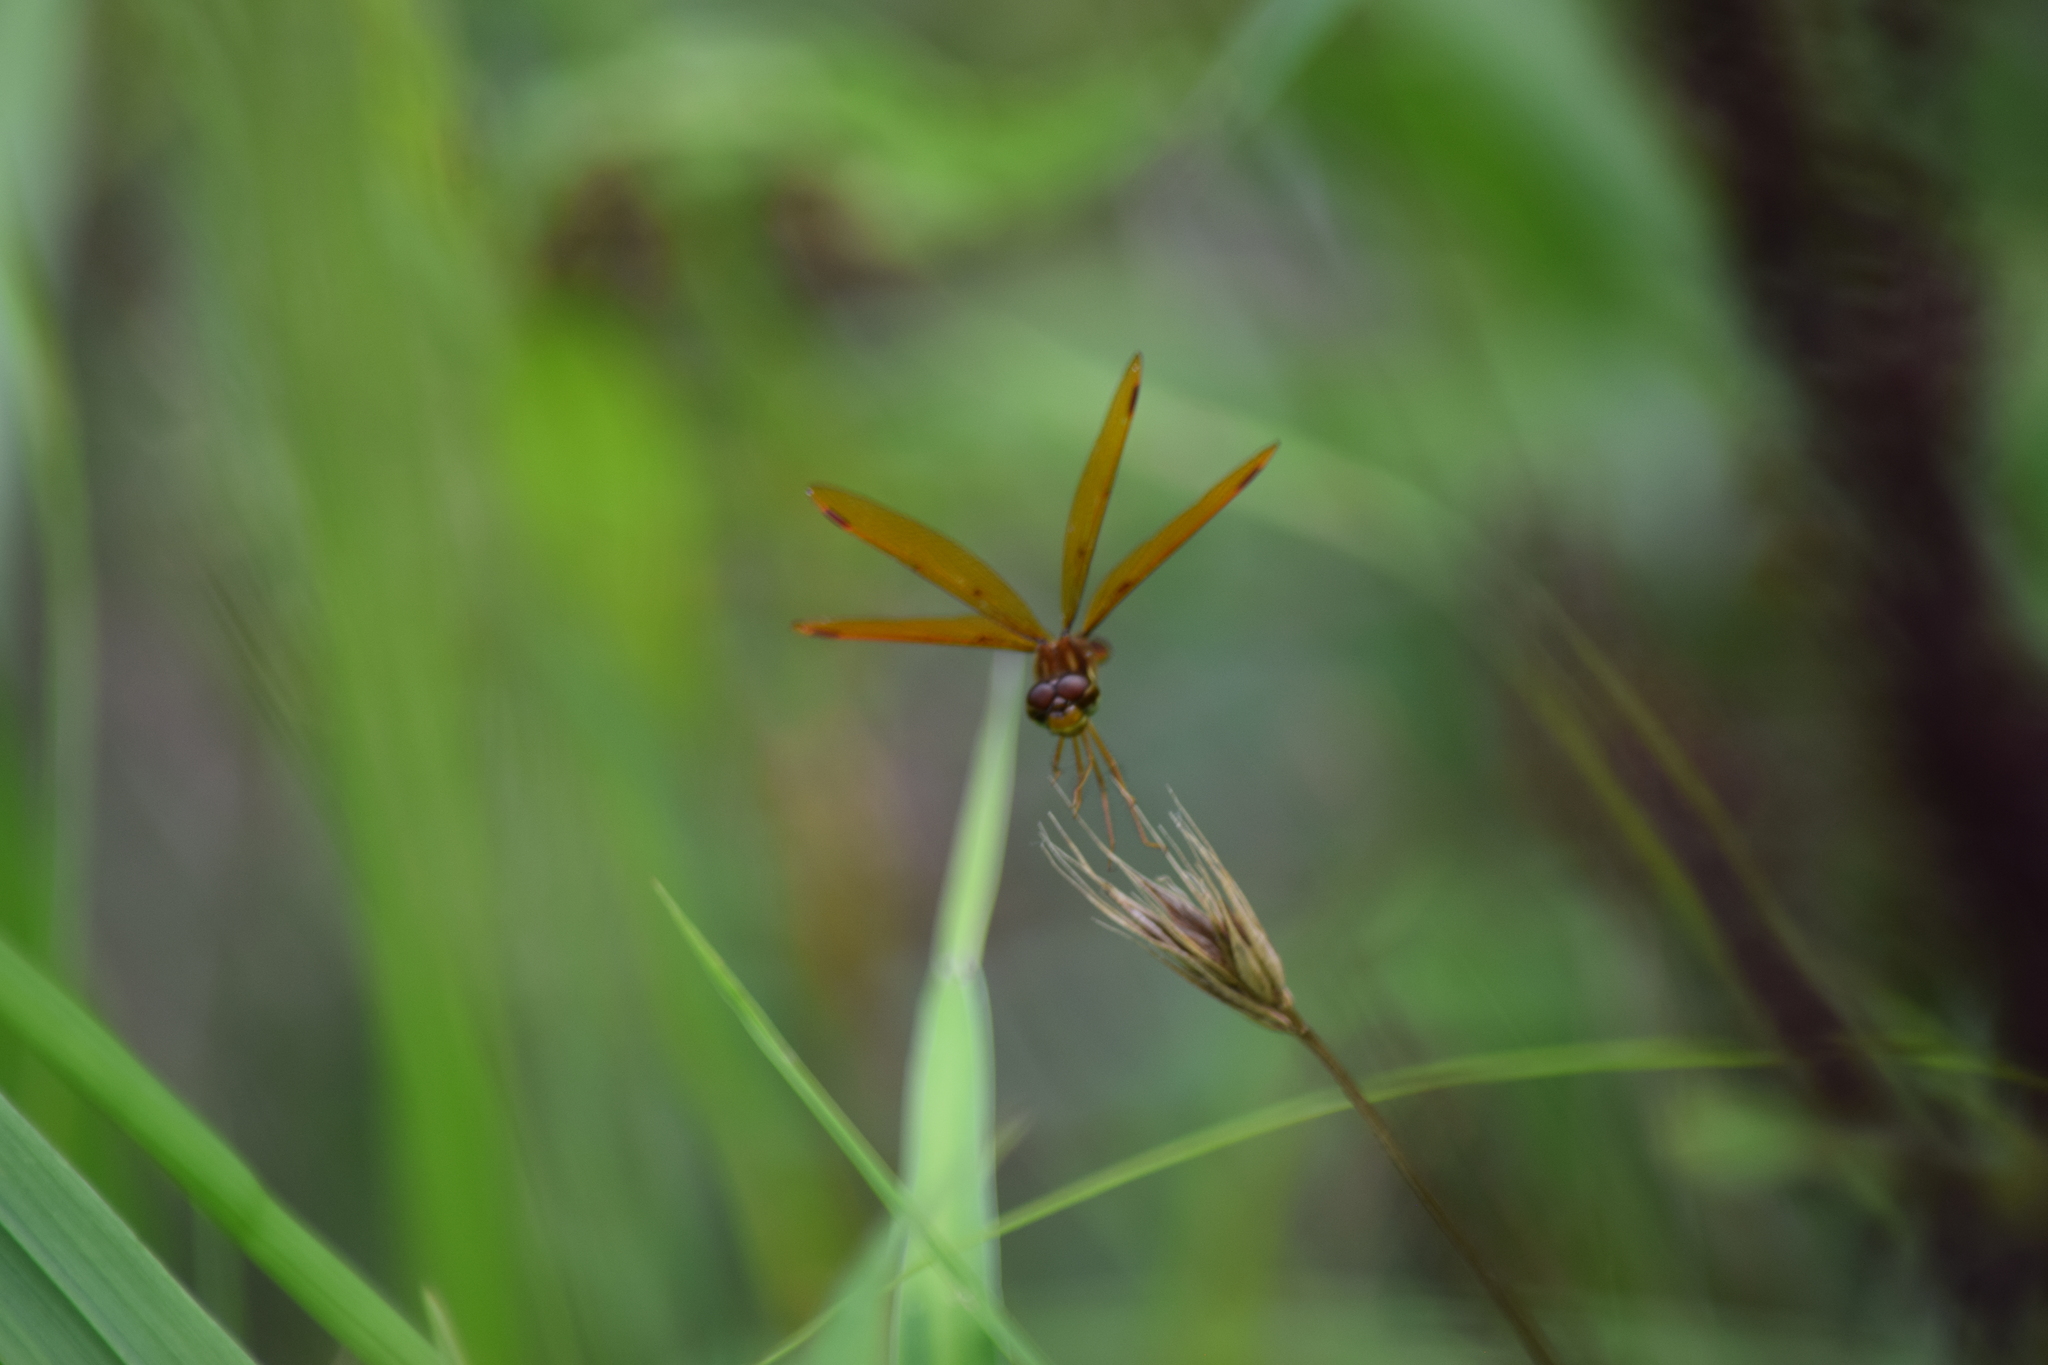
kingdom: Animalia
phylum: Arthropoda
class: Insecta
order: Odonata
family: Libellulidae
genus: Perithemis
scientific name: Perithemis tenera
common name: Eastern amberwing
